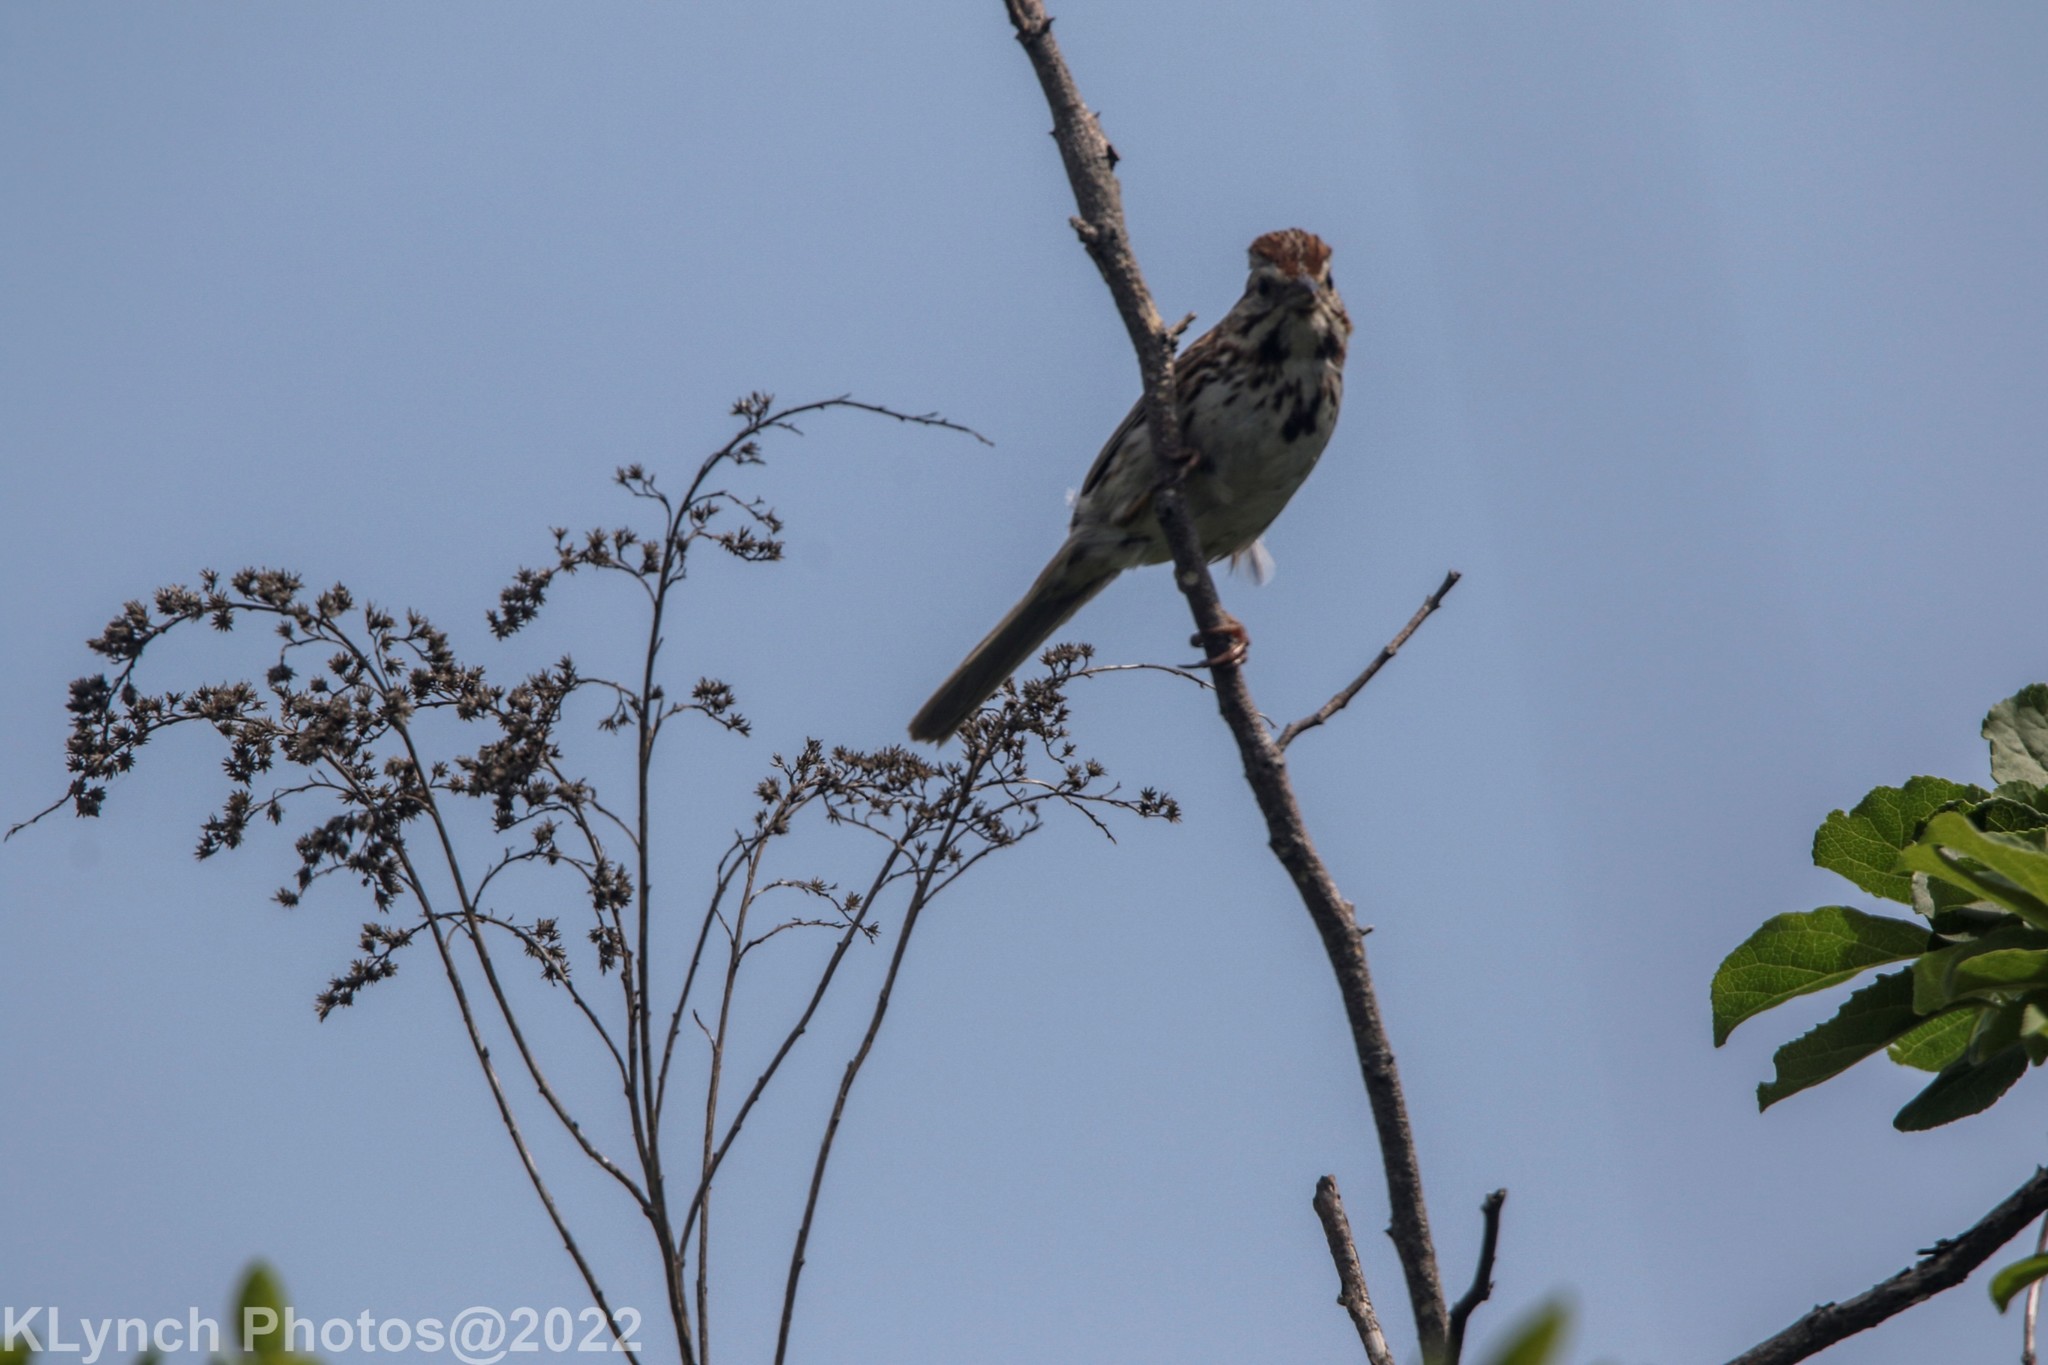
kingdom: Animalia
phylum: Chordata
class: Aves
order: Passeriformes
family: Passerellidae
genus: Melospiza
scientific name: Melospiza melodia
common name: Song sparrow
